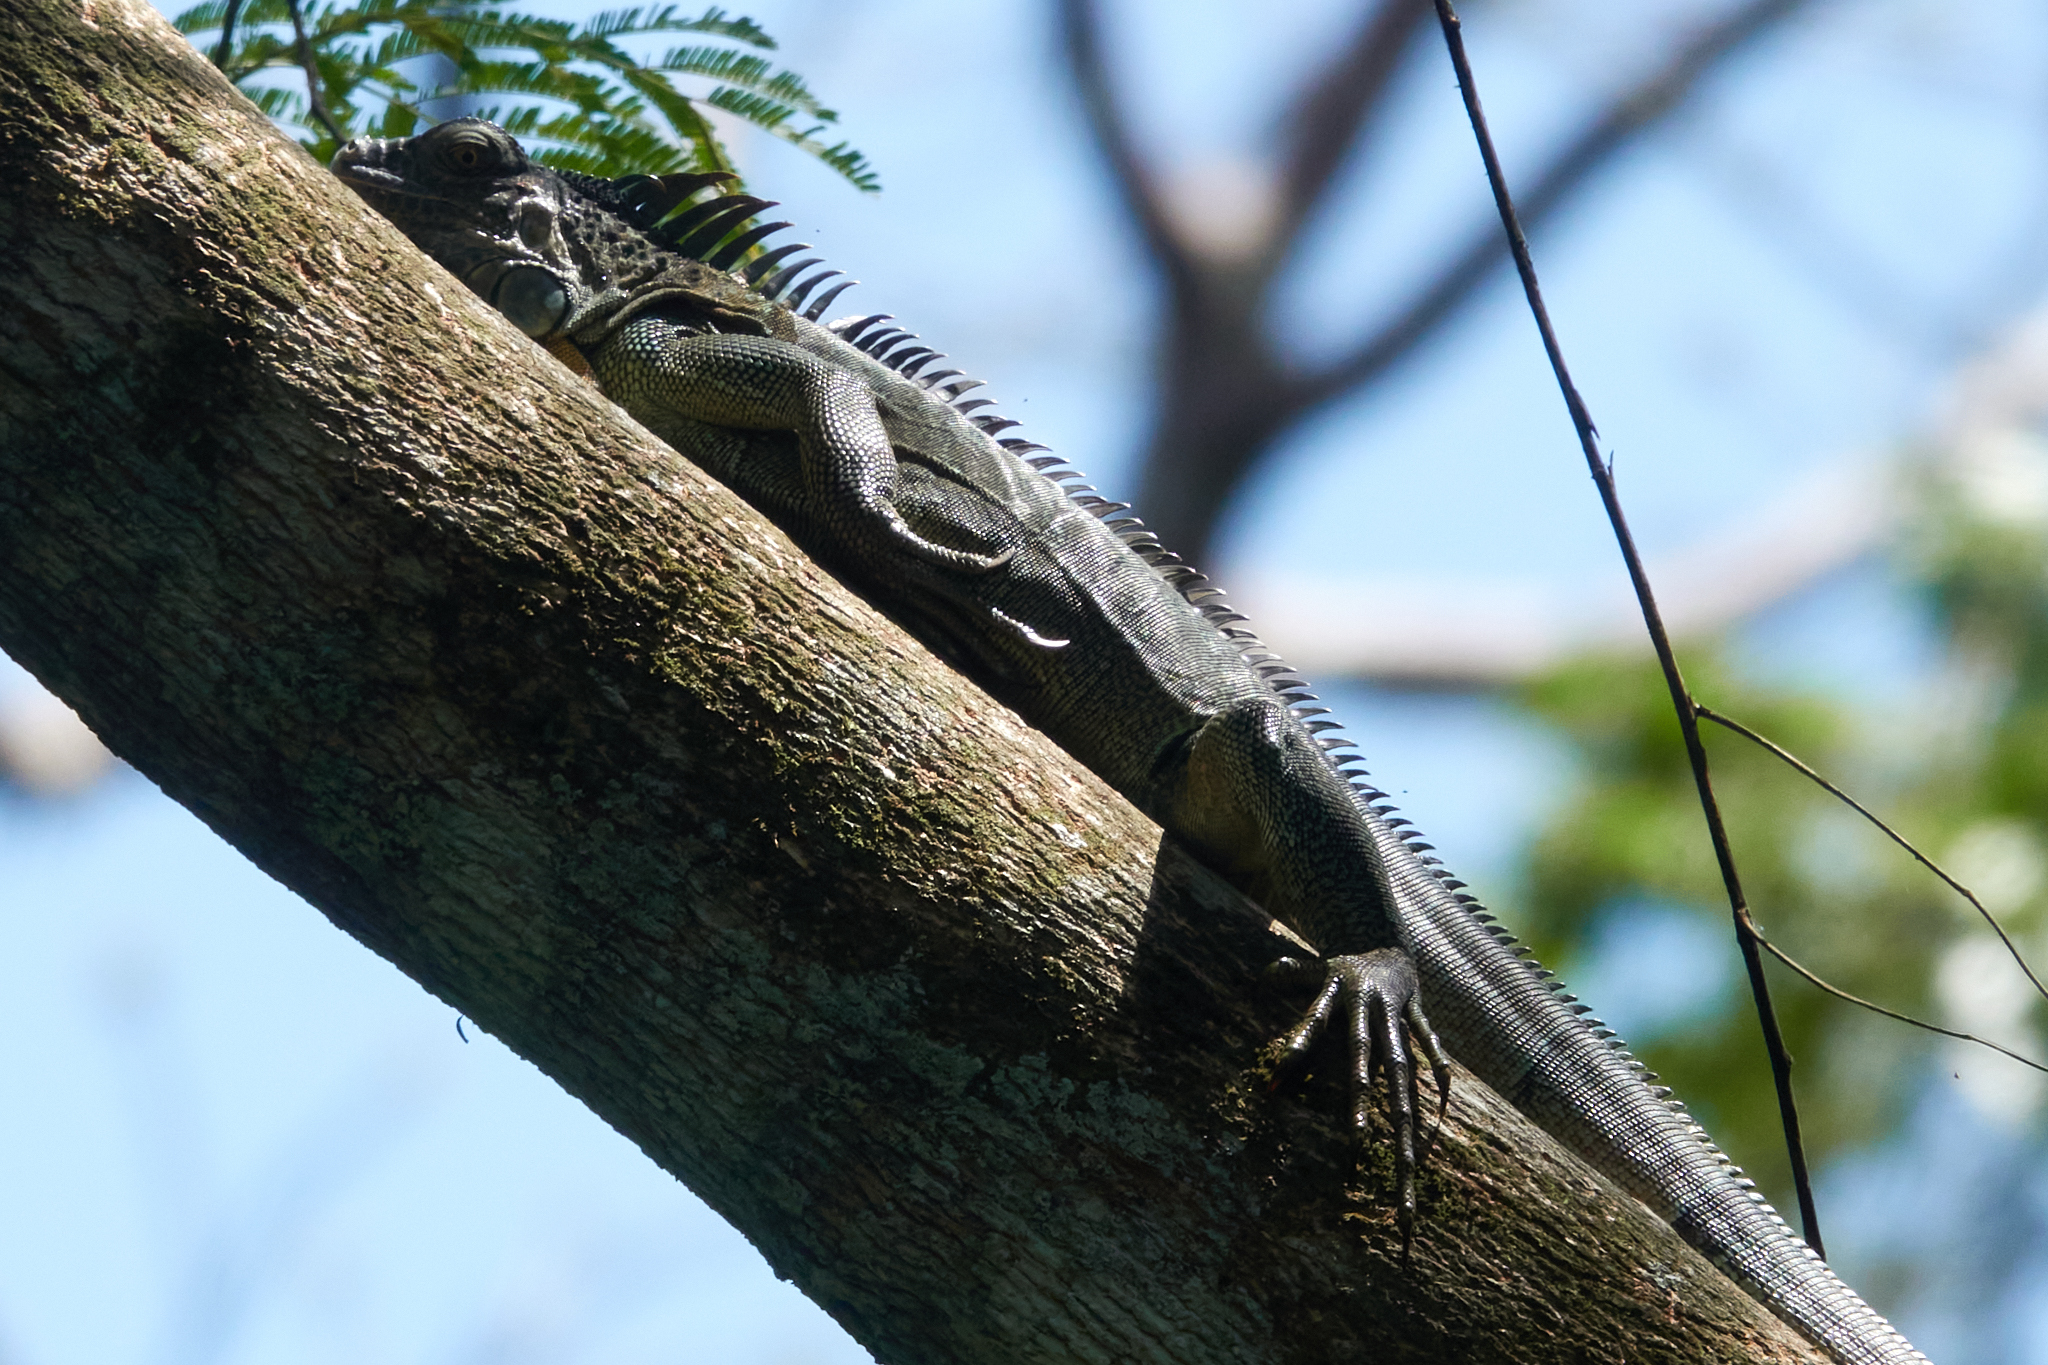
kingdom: Animalia
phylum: Chordata
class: Squamata
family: Iguanidae
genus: Iguana
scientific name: Iguana iguana
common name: Green iguana
